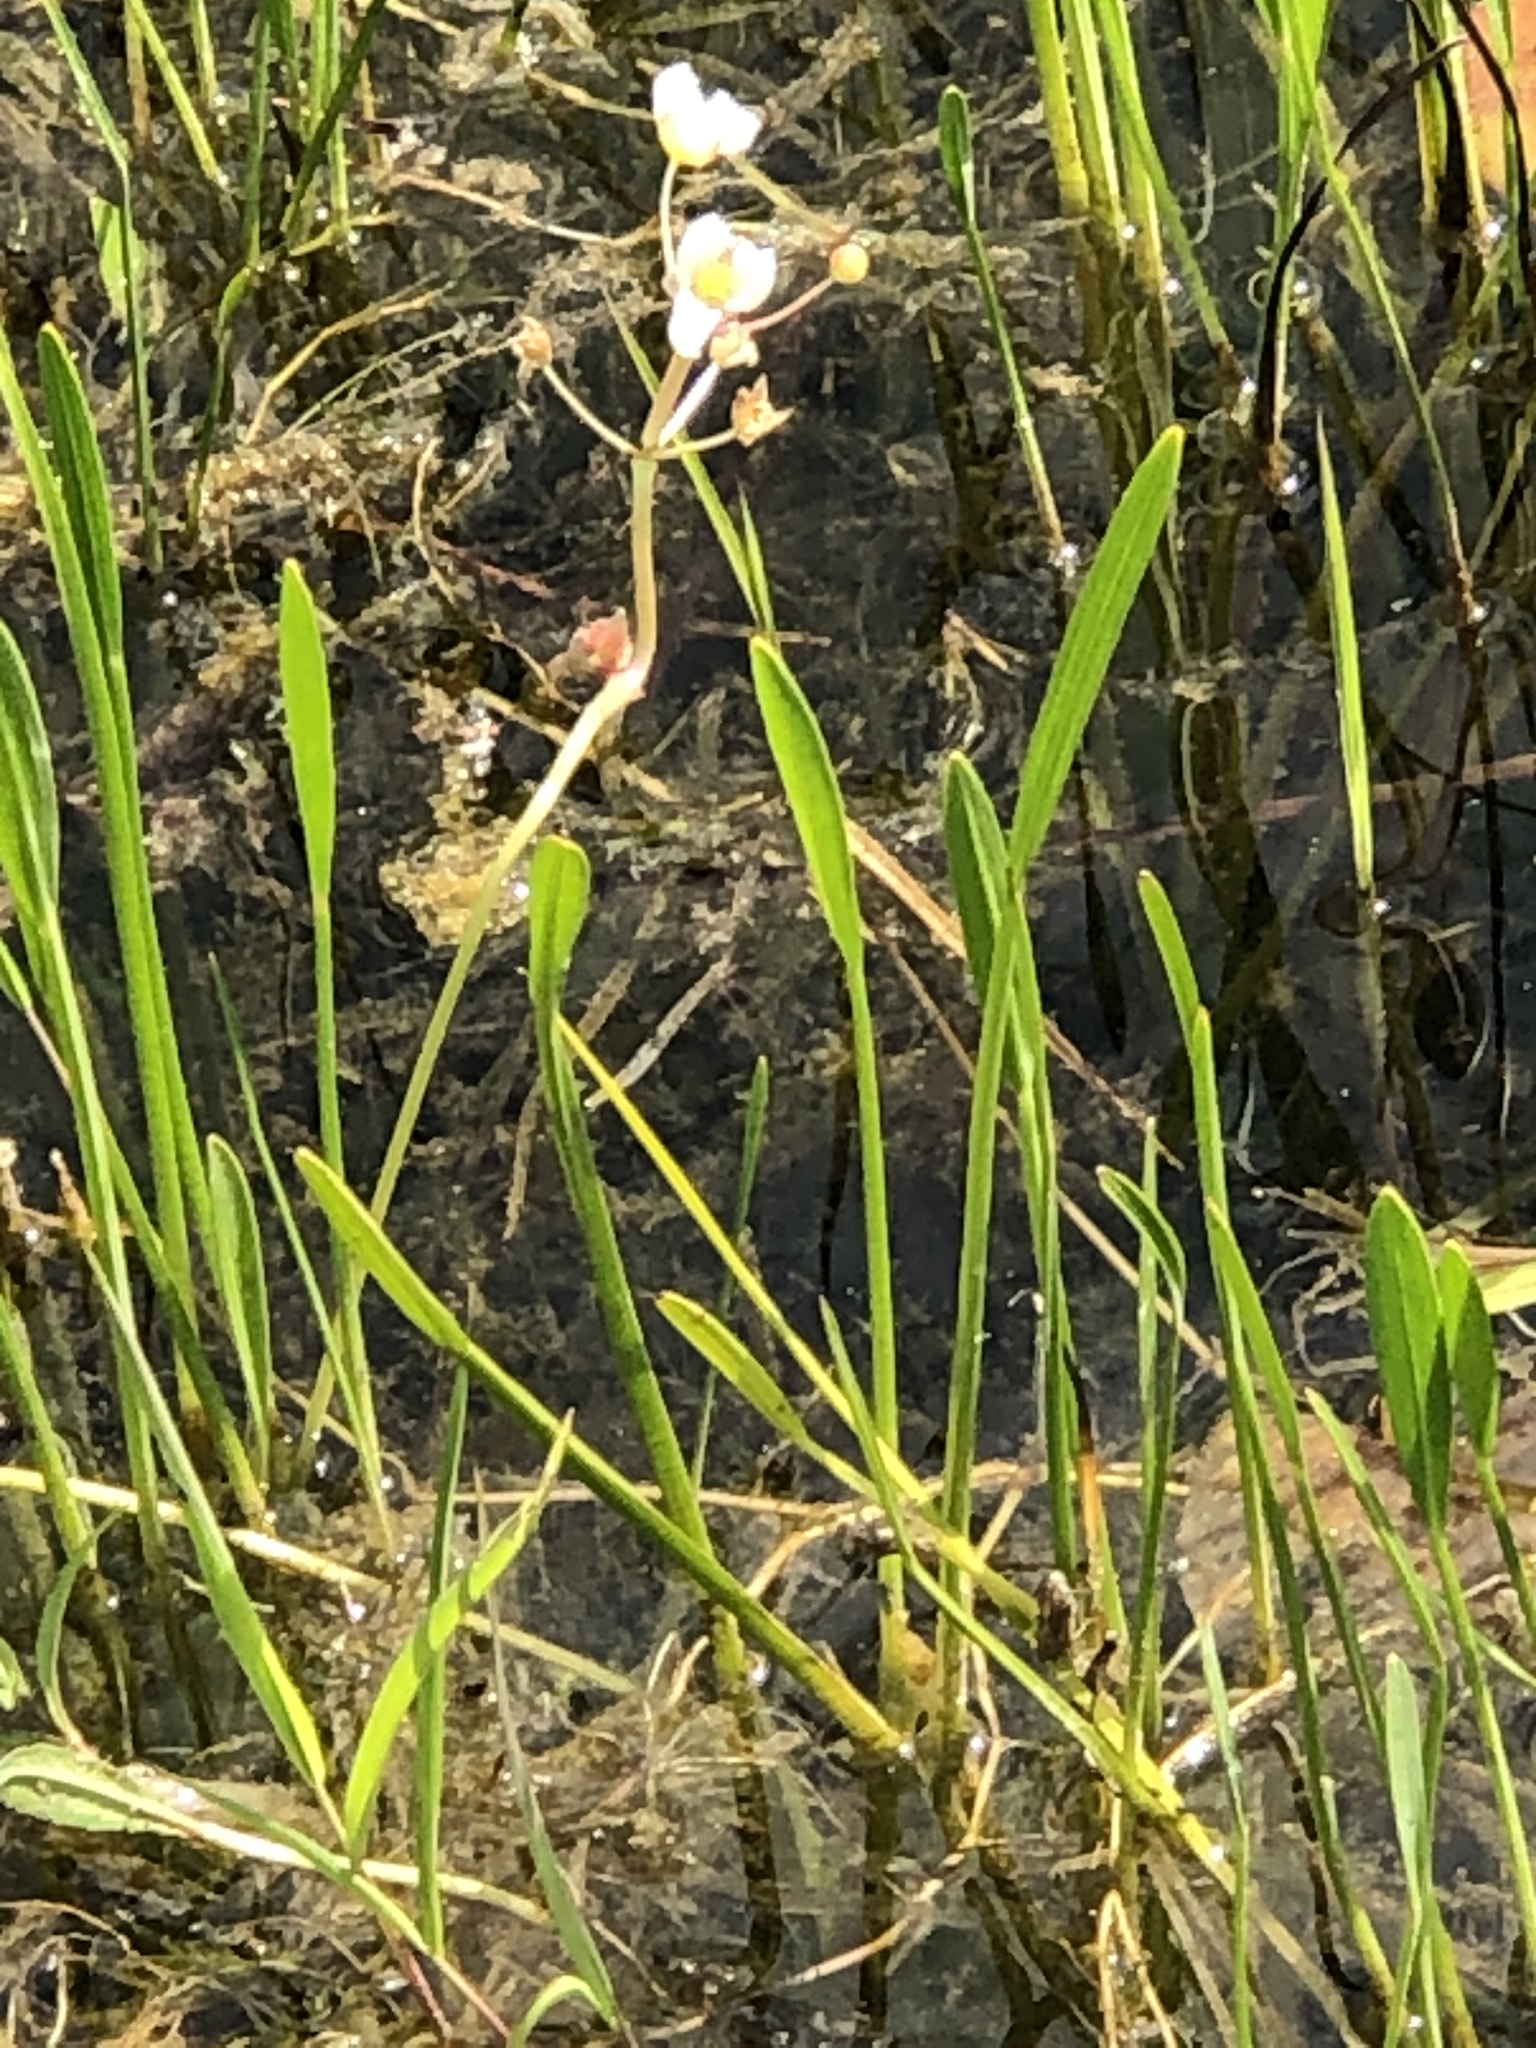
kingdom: Plantae
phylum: Tracheophyta
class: Liliopsida
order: Alismatales
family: Alismataceae
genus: Sagittaria
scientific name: Sagittaria rigida
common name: Canadian arrowhead
